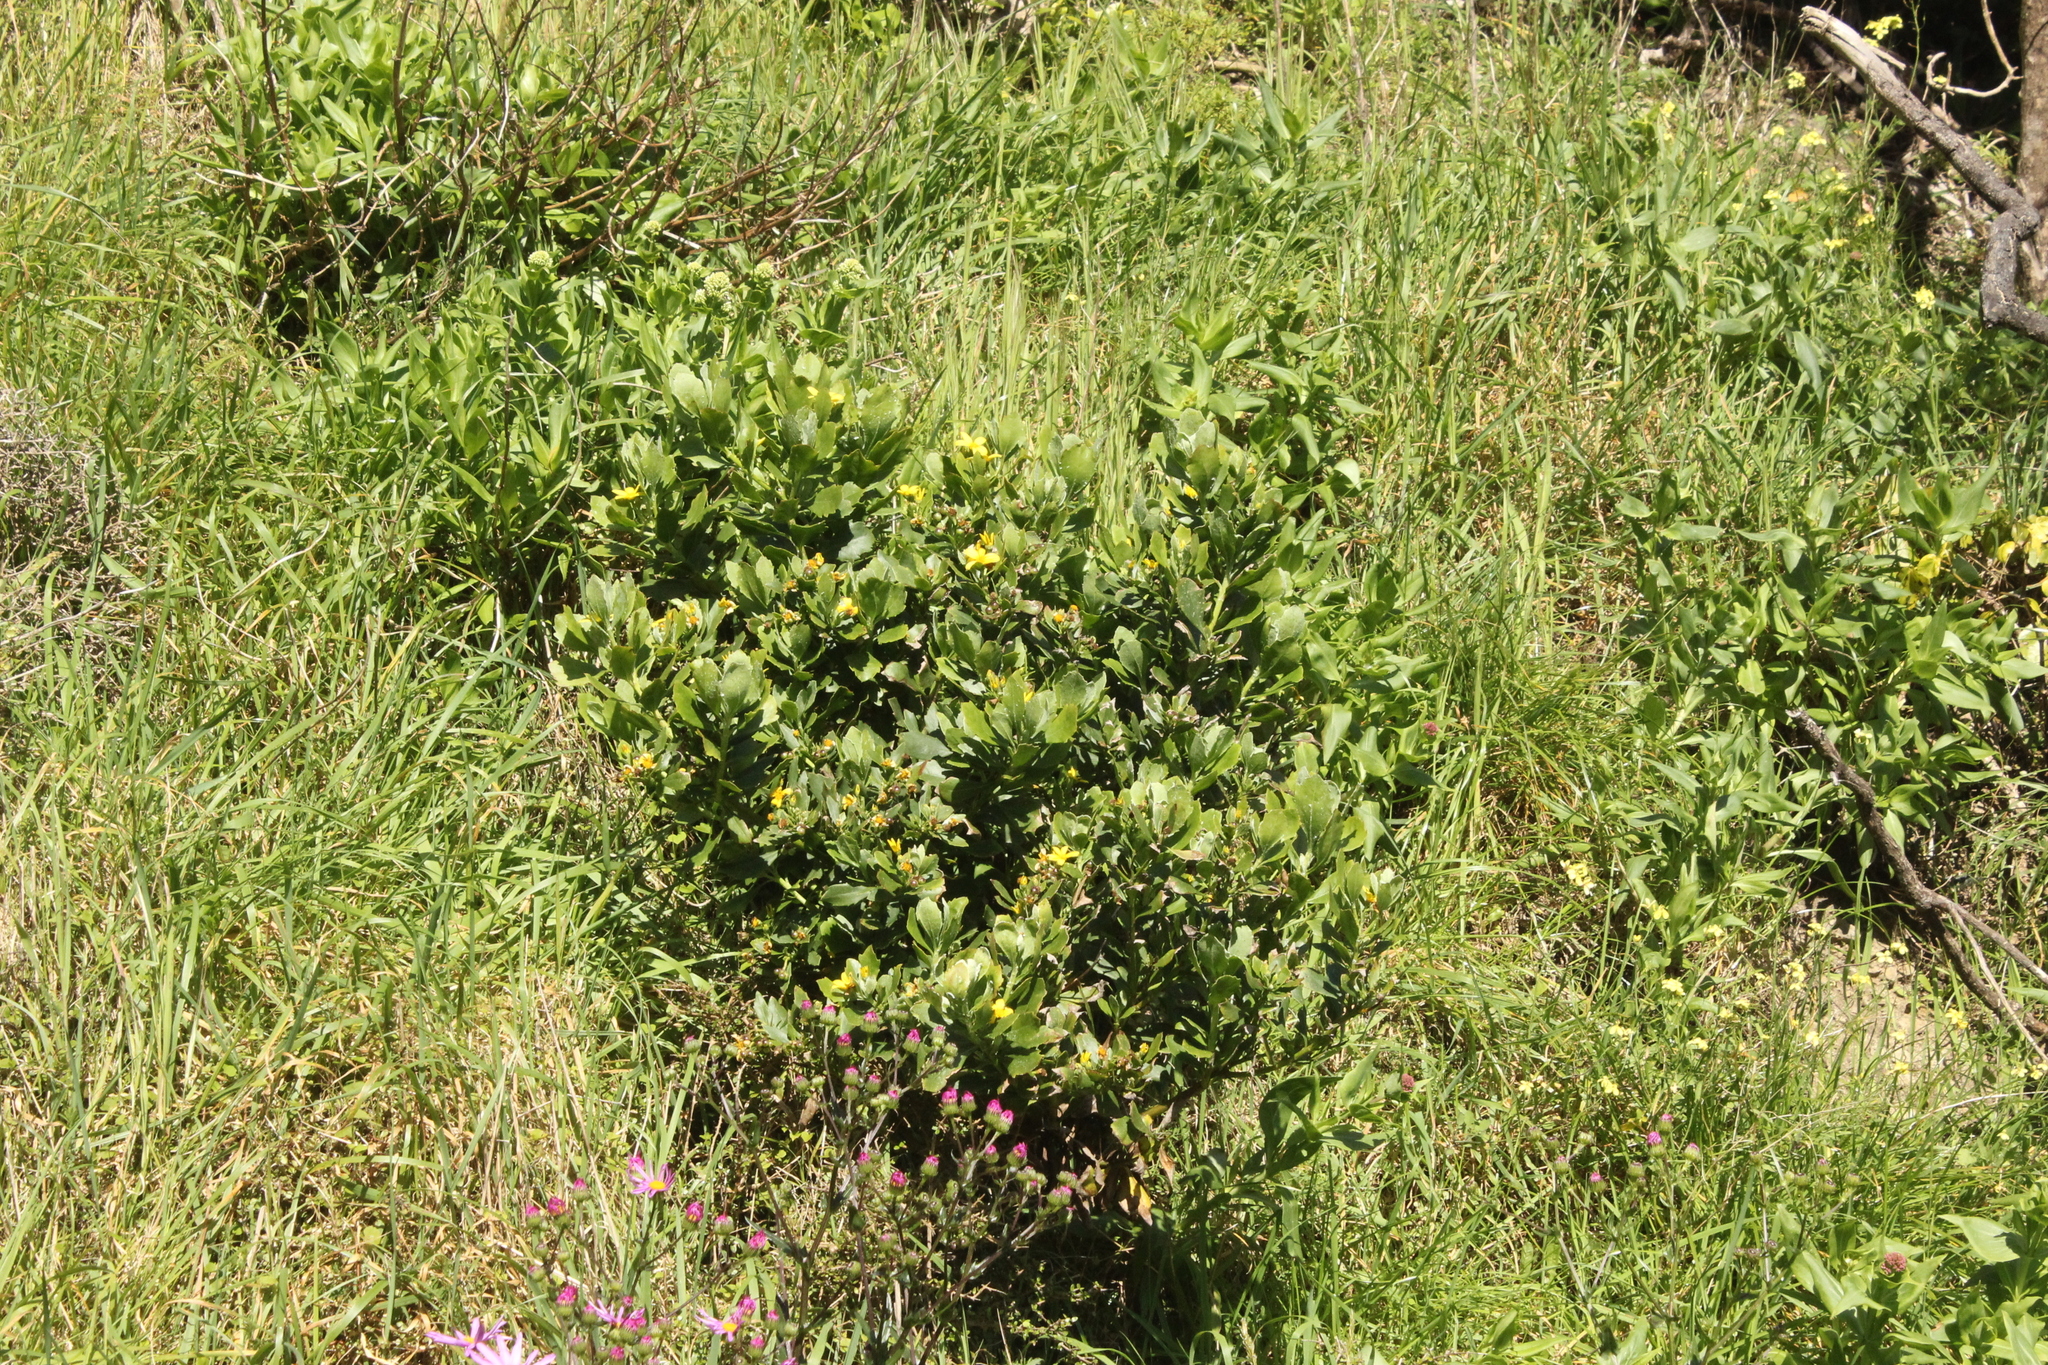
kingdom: Plantae
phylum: Tracheophyta
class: Magnoliopsida
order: Asterales
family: Asteraceae
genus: Osteospermum
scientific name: Osteospermum moniliferum
